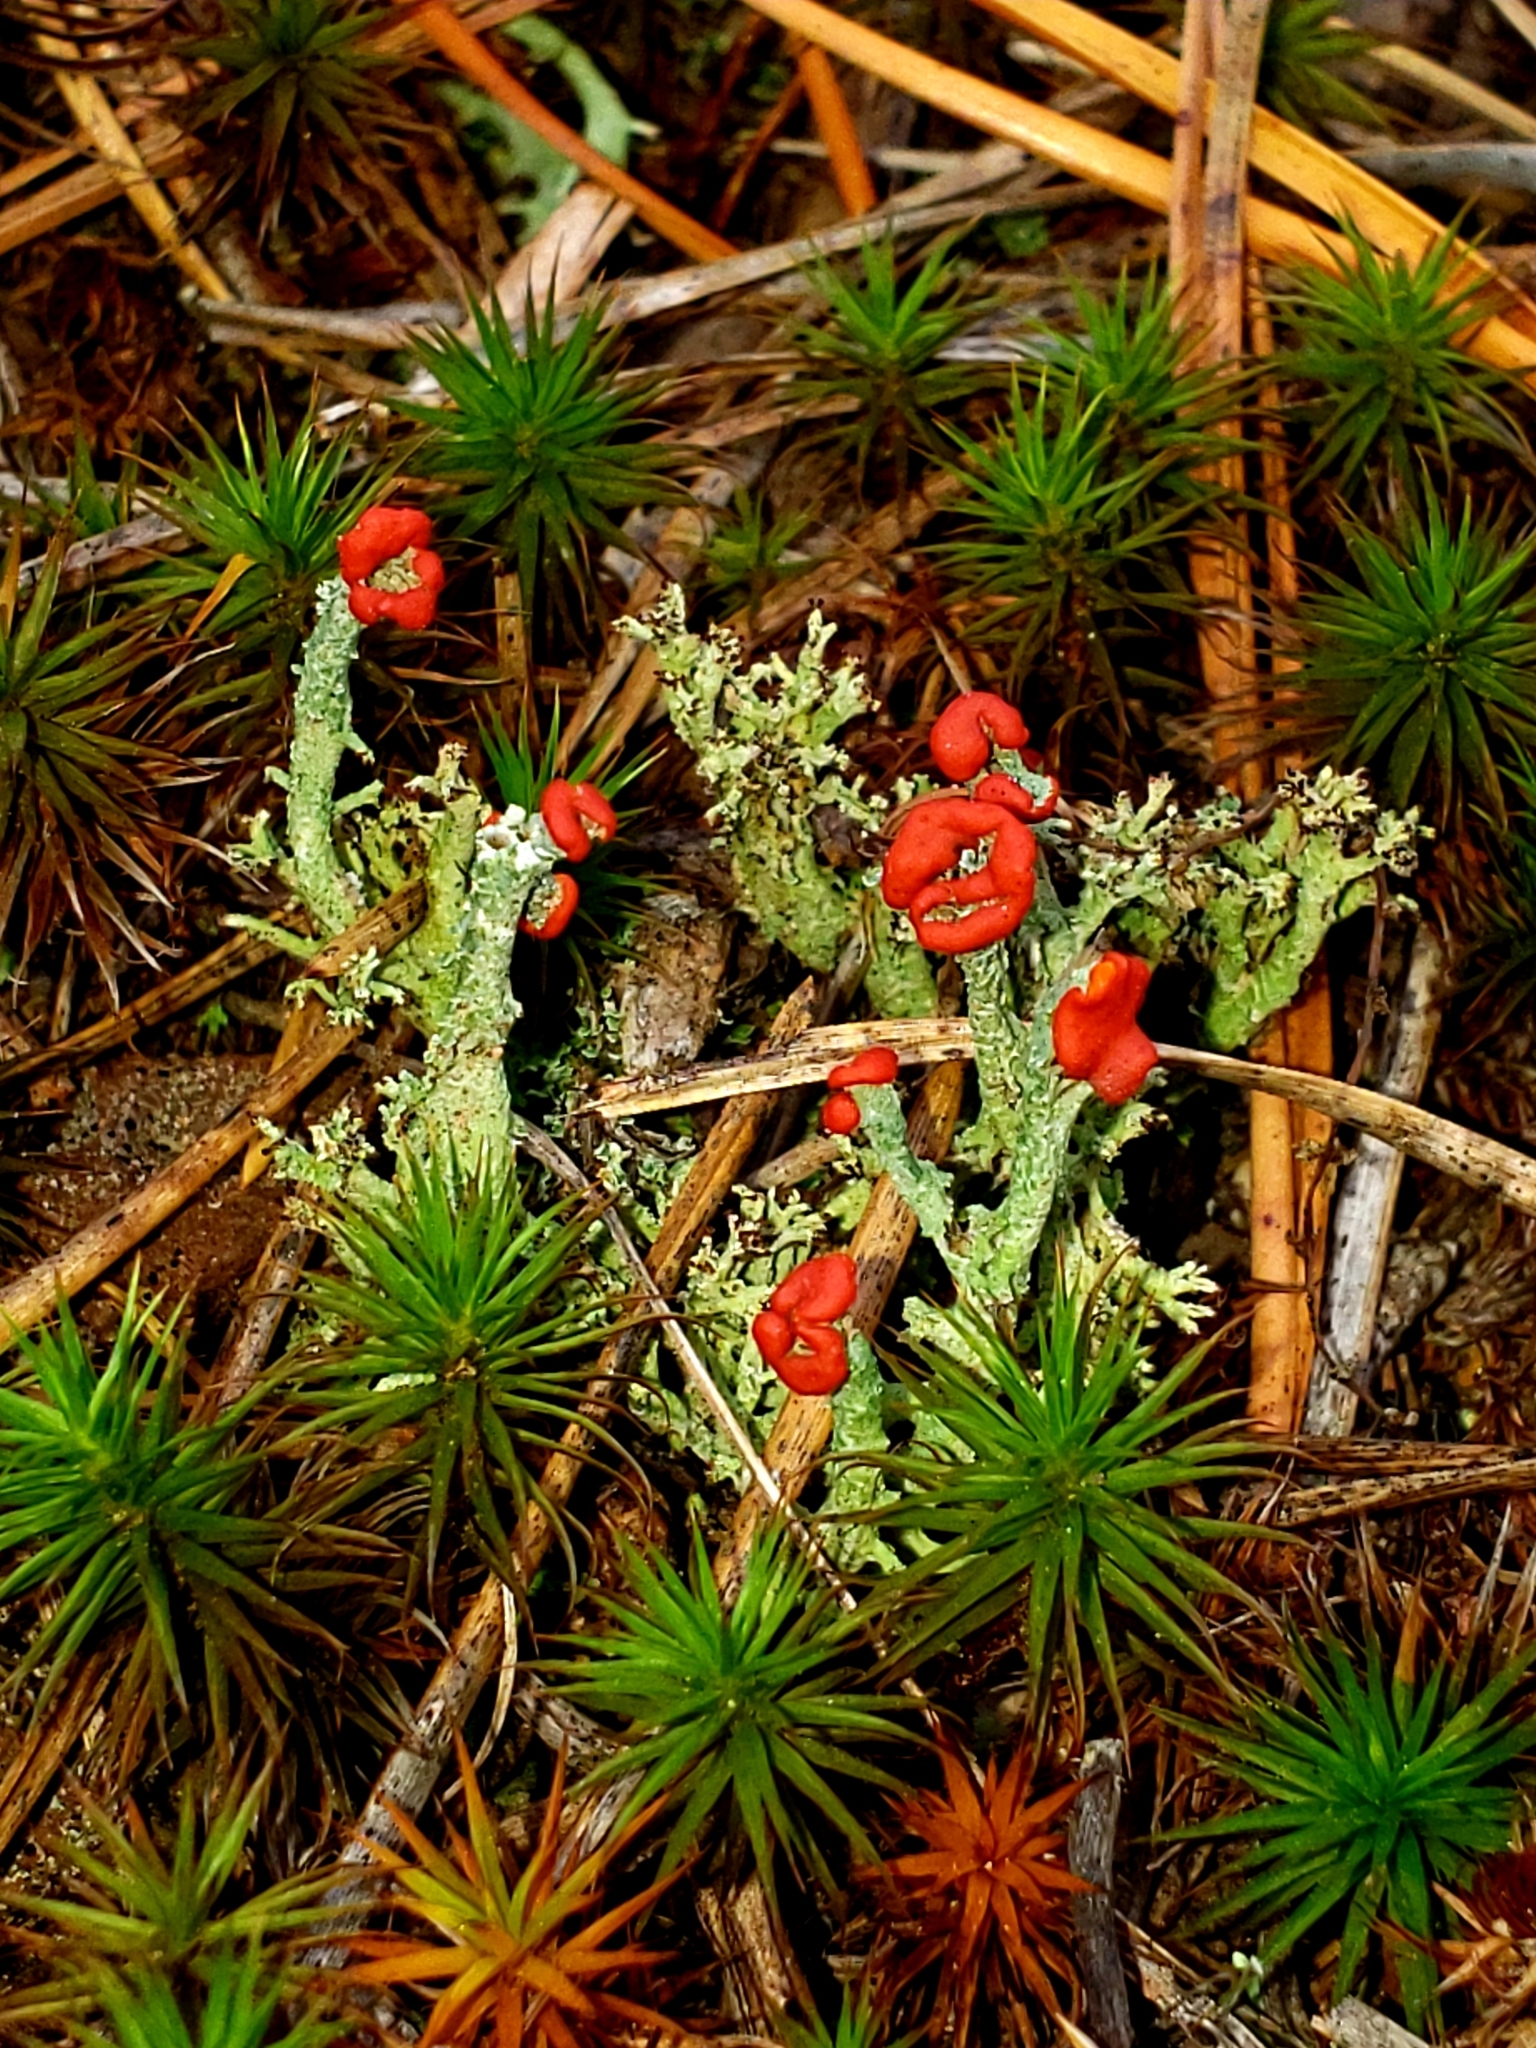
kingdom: Fungi
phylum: Ascomycota
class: Lecanoromycetes
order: Lecanorales
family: Cladoniaceae
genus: Cladonia
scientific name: Cladonia cristatella
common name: British soldier lichen
